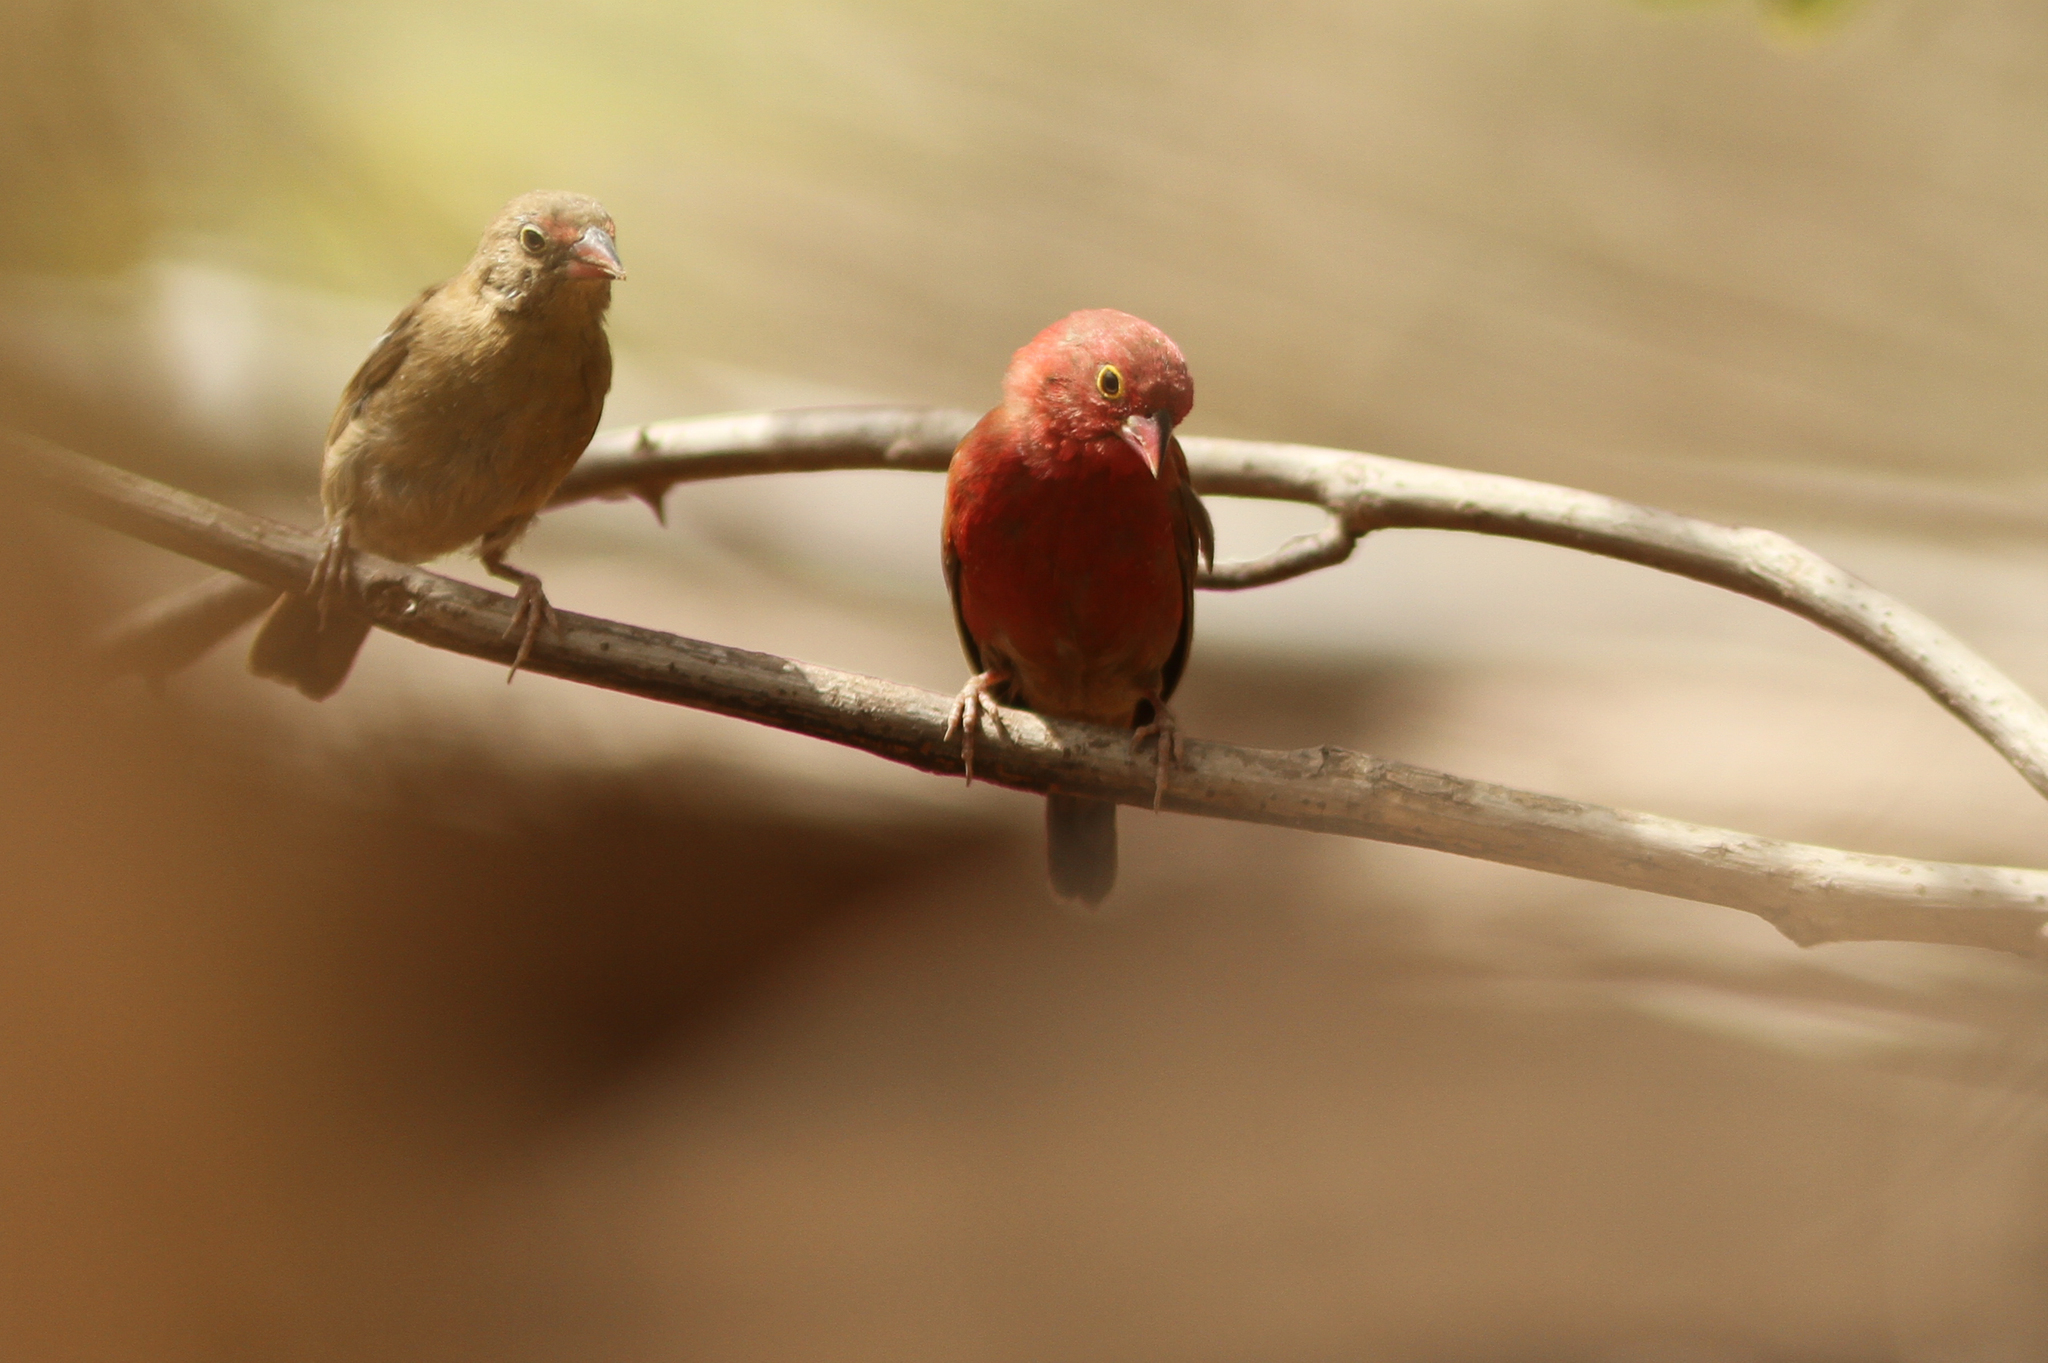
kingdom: Animalia
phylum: Chordata
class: Aves
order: Passeriformes
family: Estrildidae
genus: Lagonosticta
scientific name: Lagonosticta senegala
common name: Red-billed firefinch
